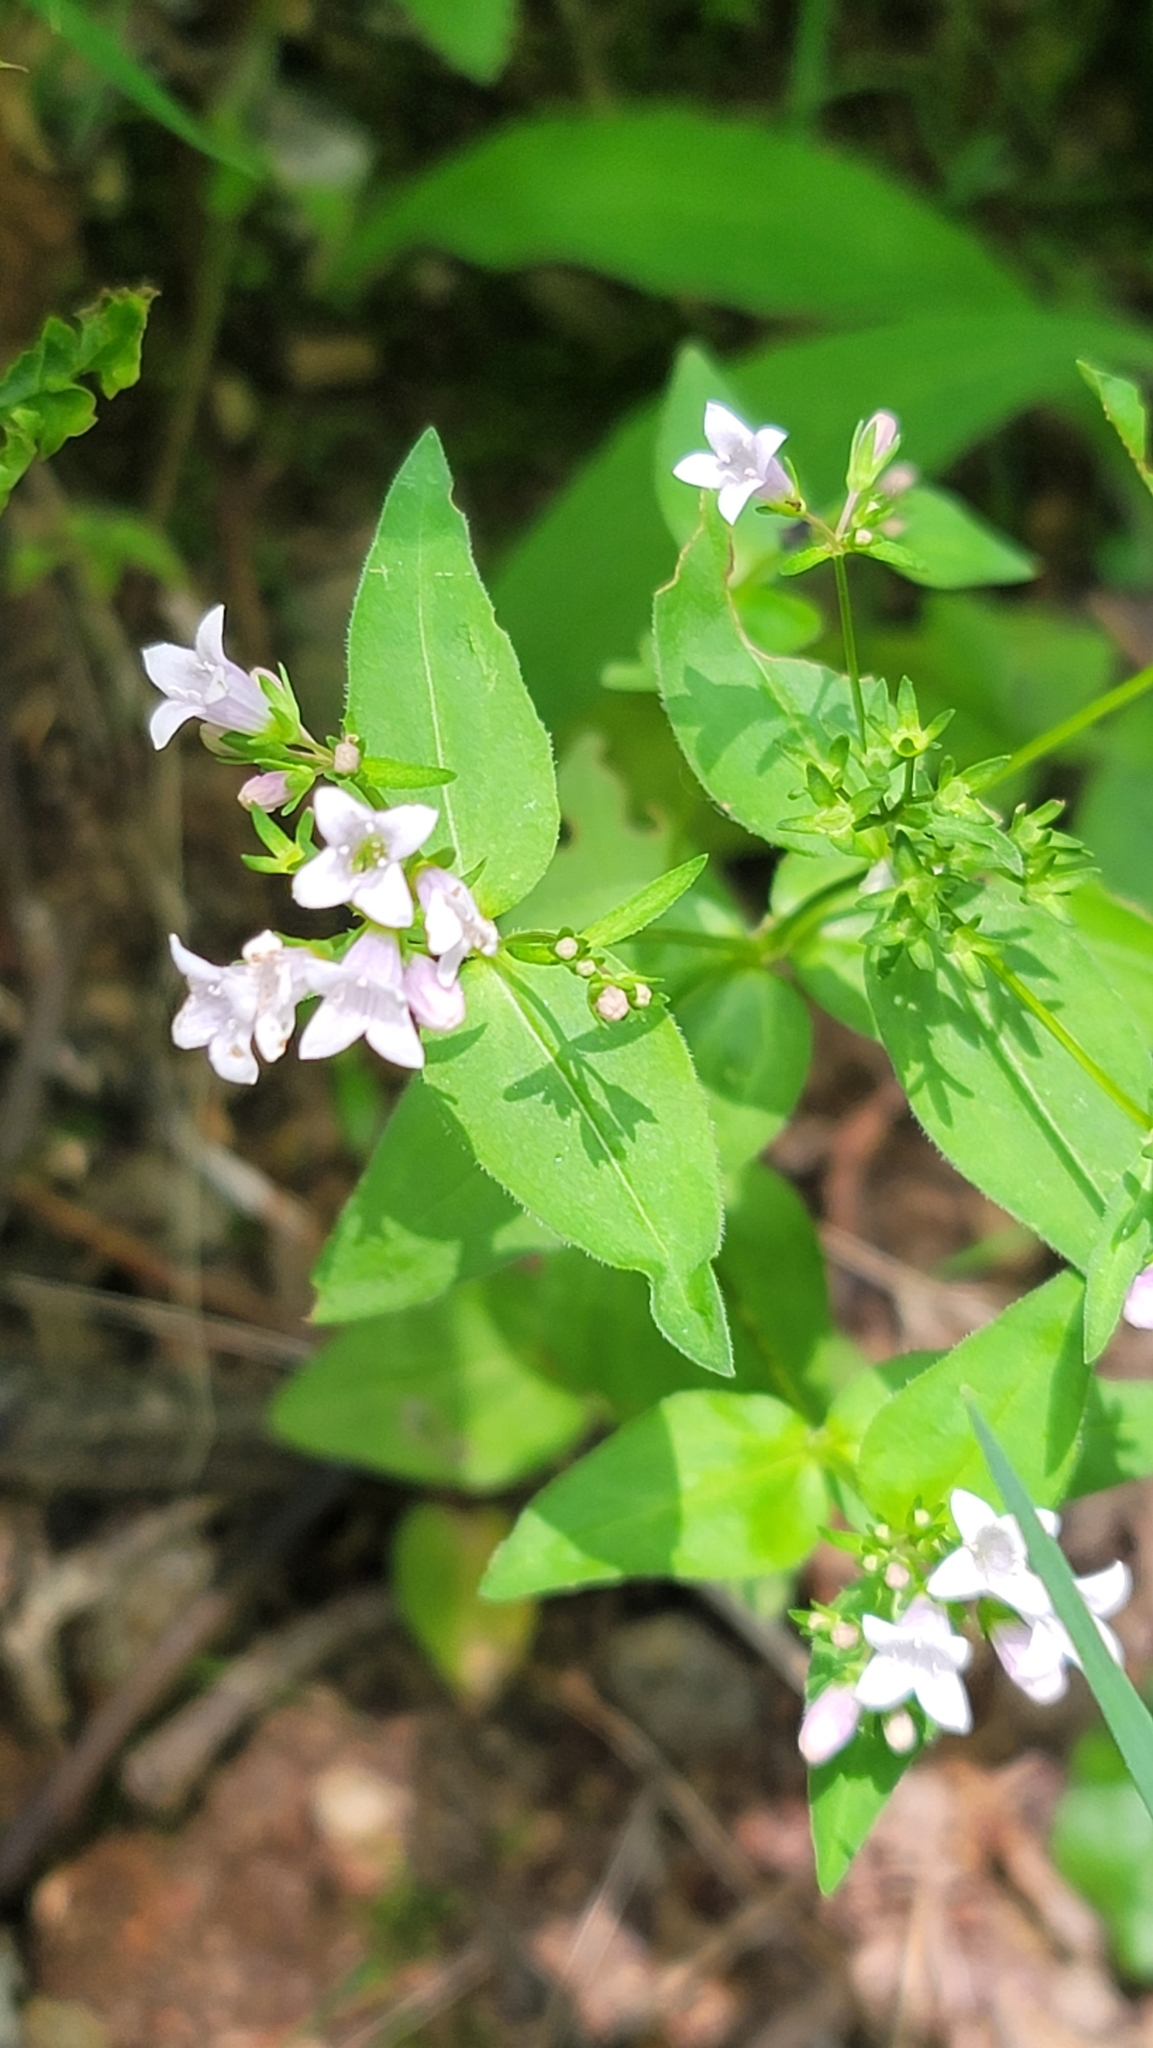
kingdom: Plantae
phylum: Tracheophyta
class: Magnoliopsida
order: Gentianales
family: Rubiaceae
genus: Houstonia
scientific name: Houstonia purpurea
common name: Summer bluet
